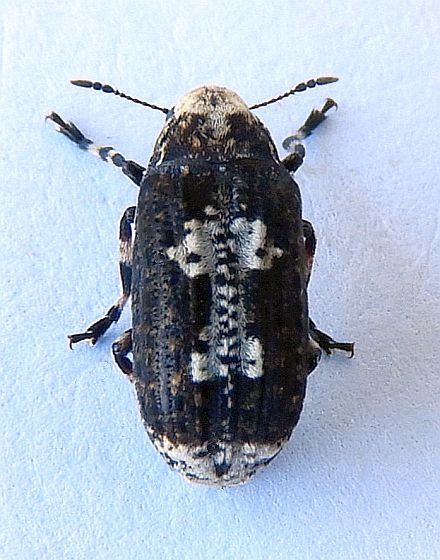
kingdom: Animalia
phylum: Arthropoda
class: Insecta
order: Coleoptera
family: Anthribidae
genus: Euparius
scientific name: Euparius pictus
